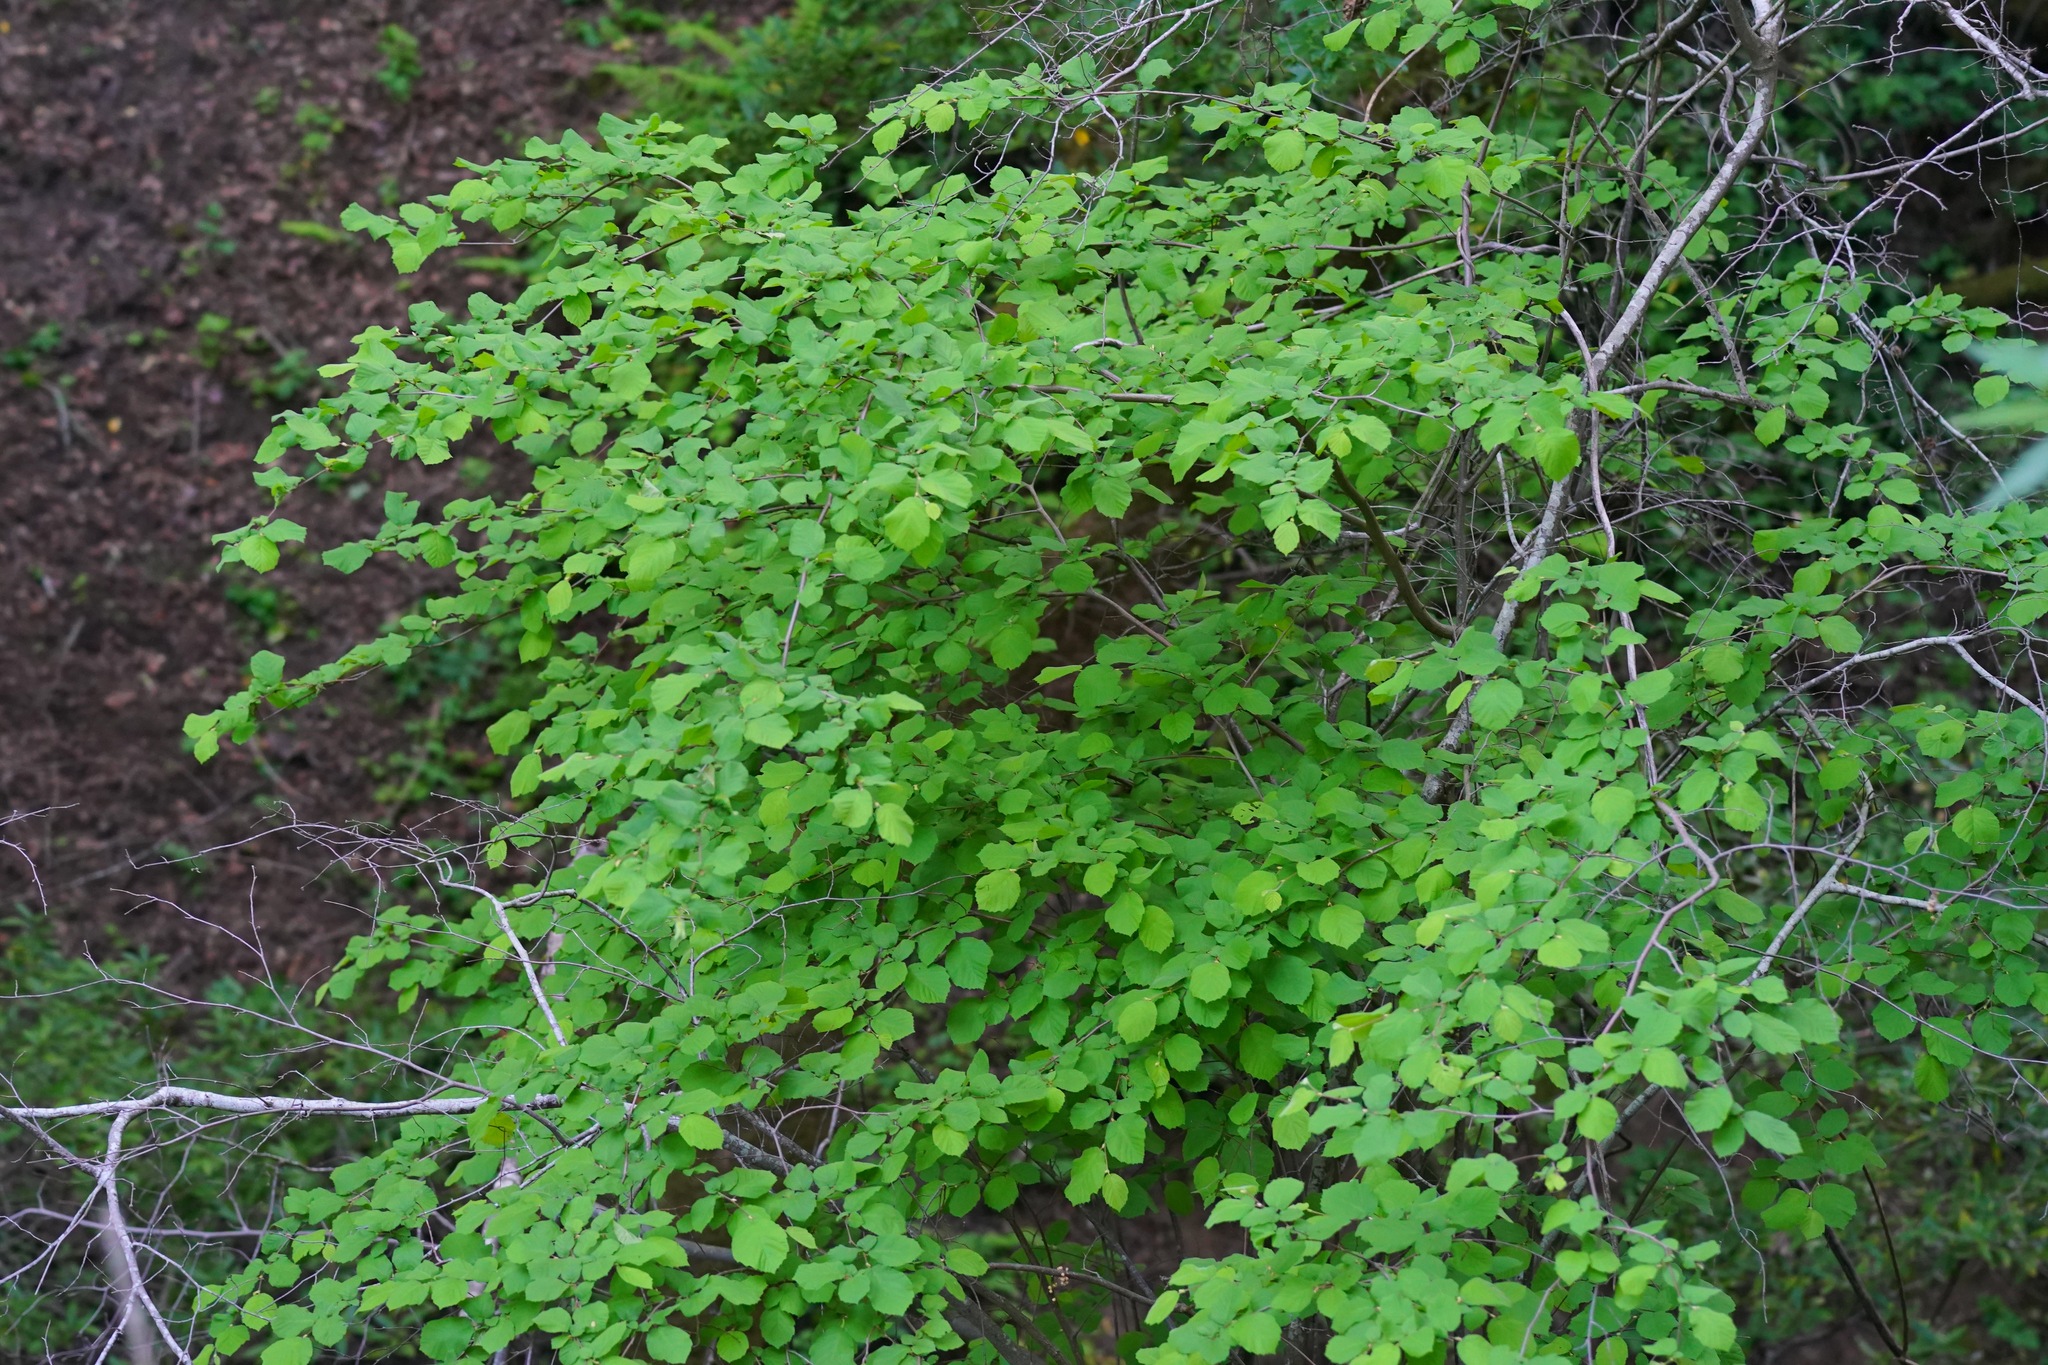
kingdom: Plantae
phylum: Tracheophyta
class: Magnoliopsida
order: Fagales
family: Betulaceae
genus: Corylus
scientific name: Corylus cornuta
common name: Beaked hazel
